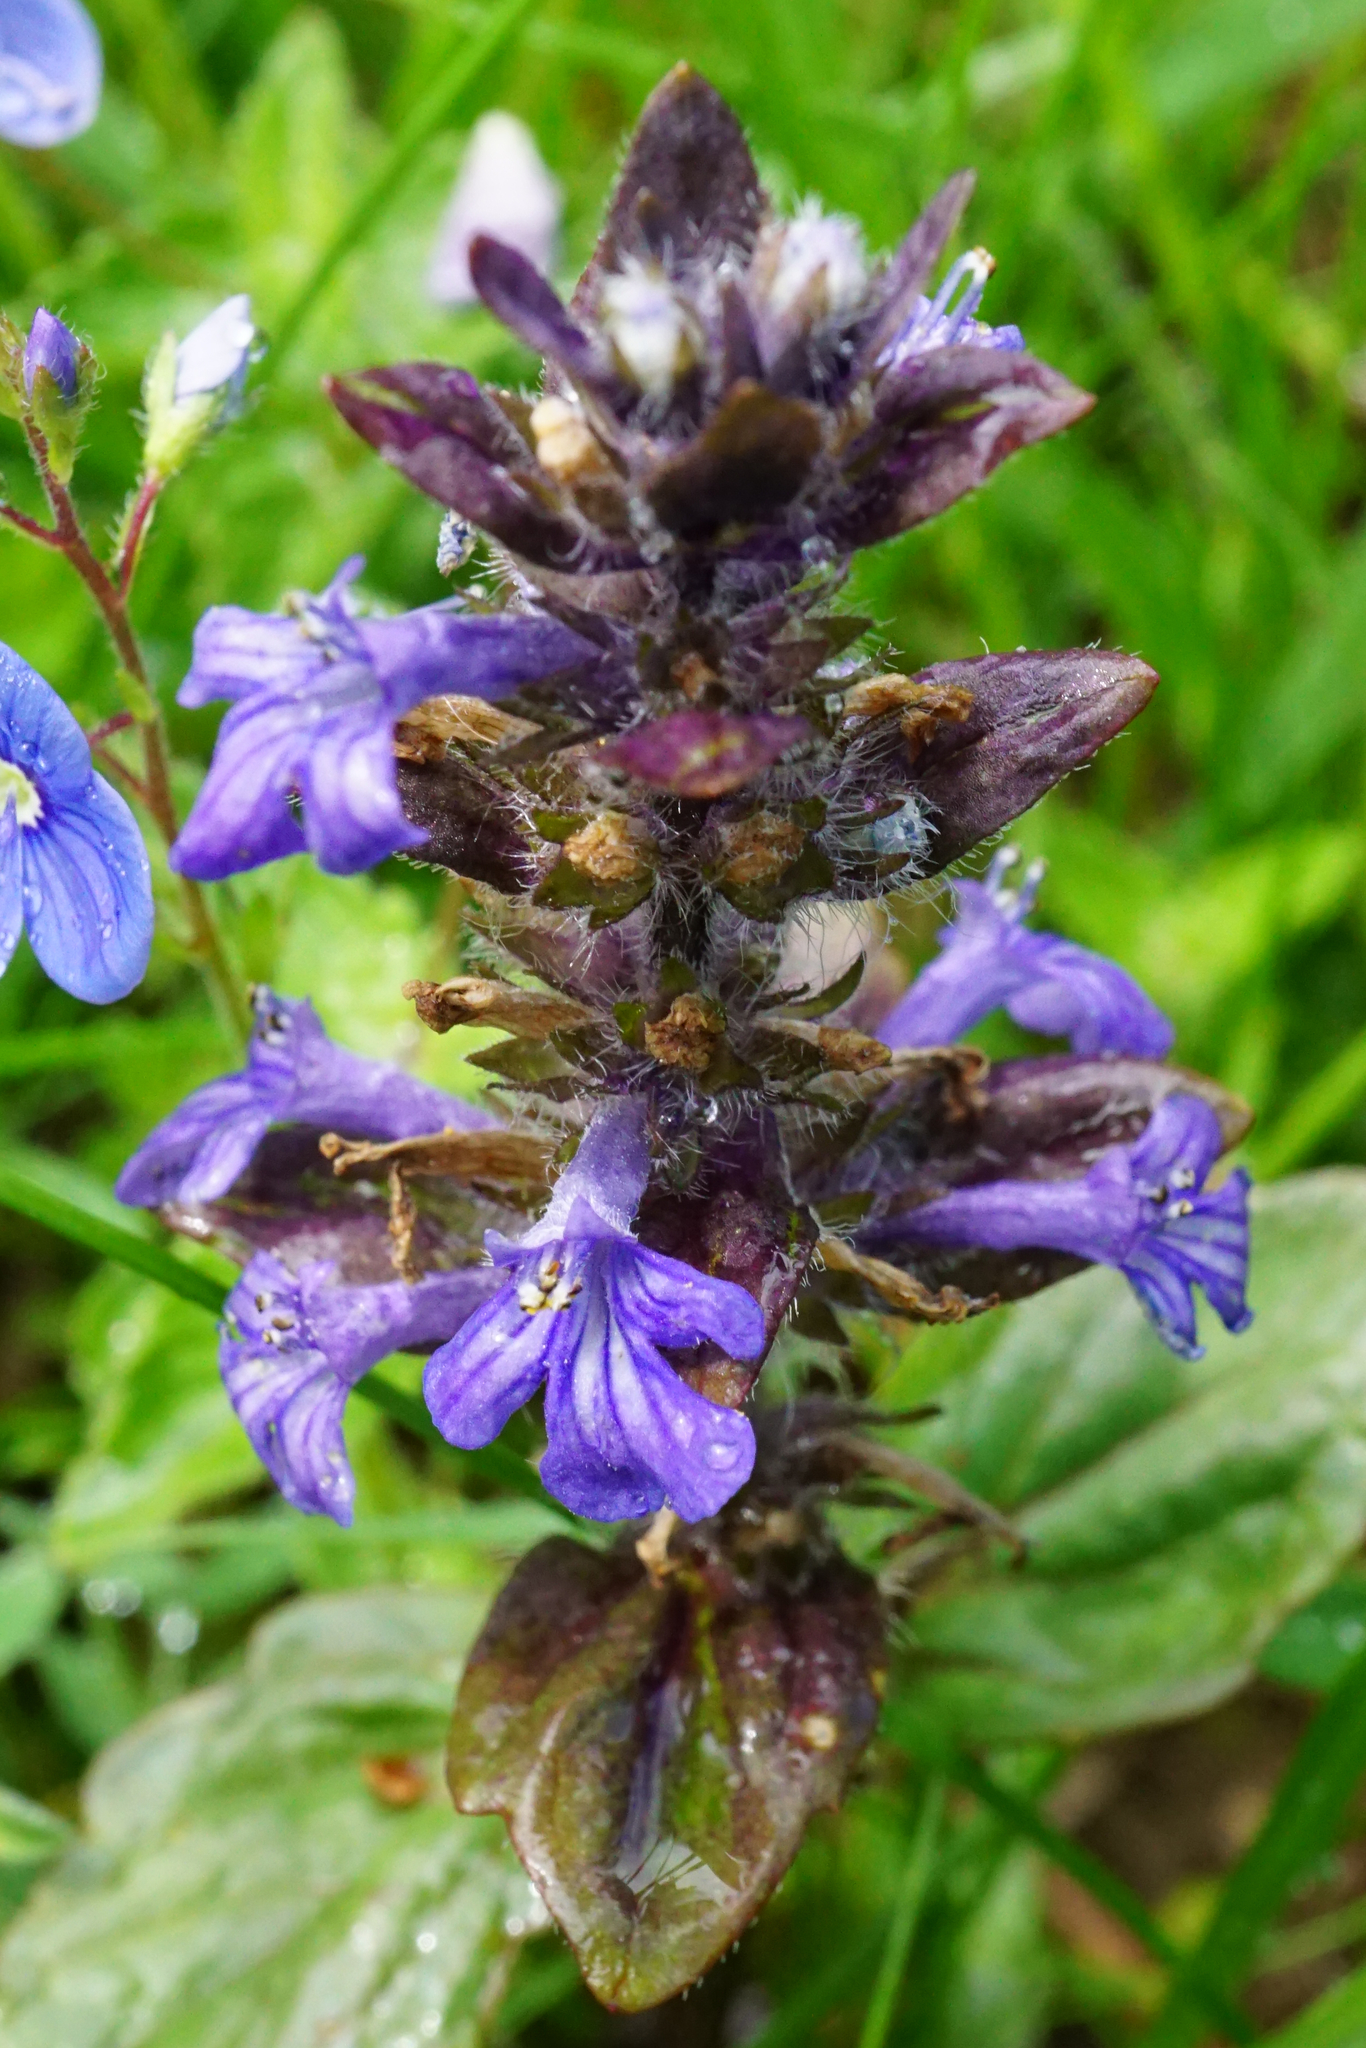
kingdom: Plantae
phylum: Tracheophyta
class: Magnoliopsida
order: Lamiales
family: Lamiaceae
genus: Ajuga
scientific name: Ajuga reptans
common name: Bugle
